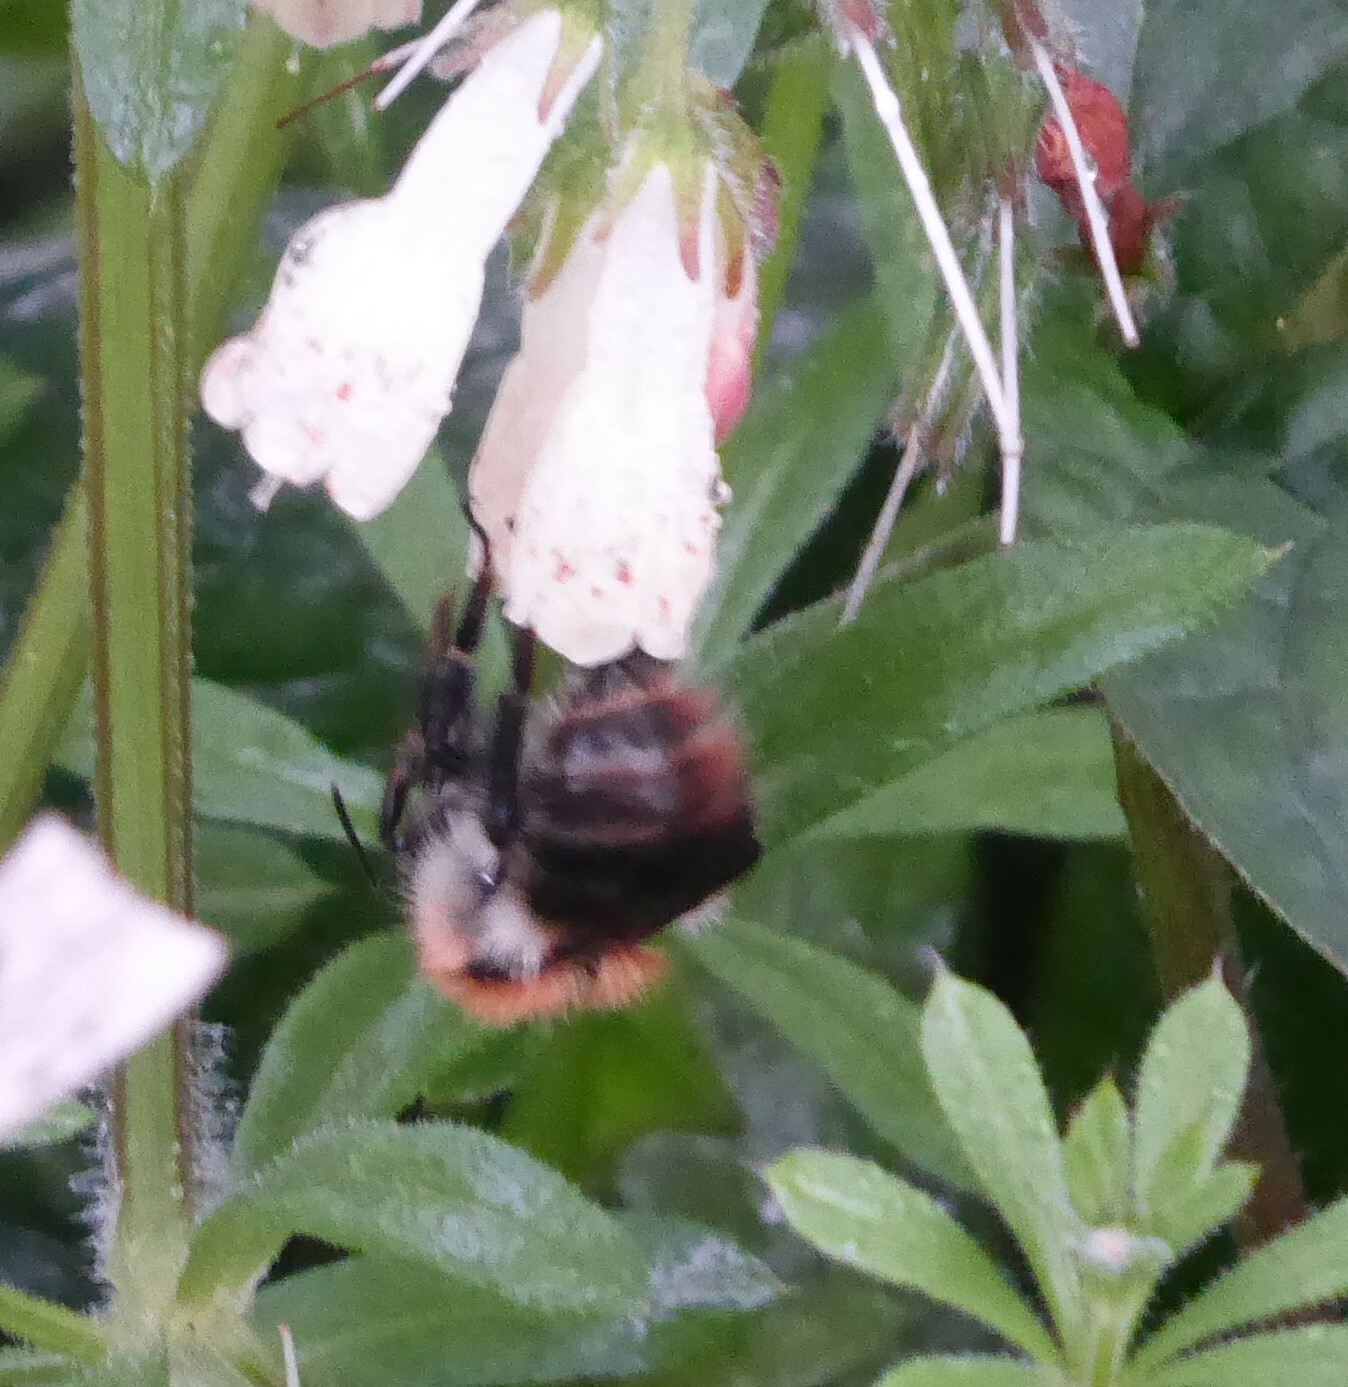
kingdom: Animalia
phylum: Arthropoda
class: Insecta
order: Hymenoptera
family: Apidae
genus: Bombus
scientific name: Bombus pascuorum
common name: Common carder bee
